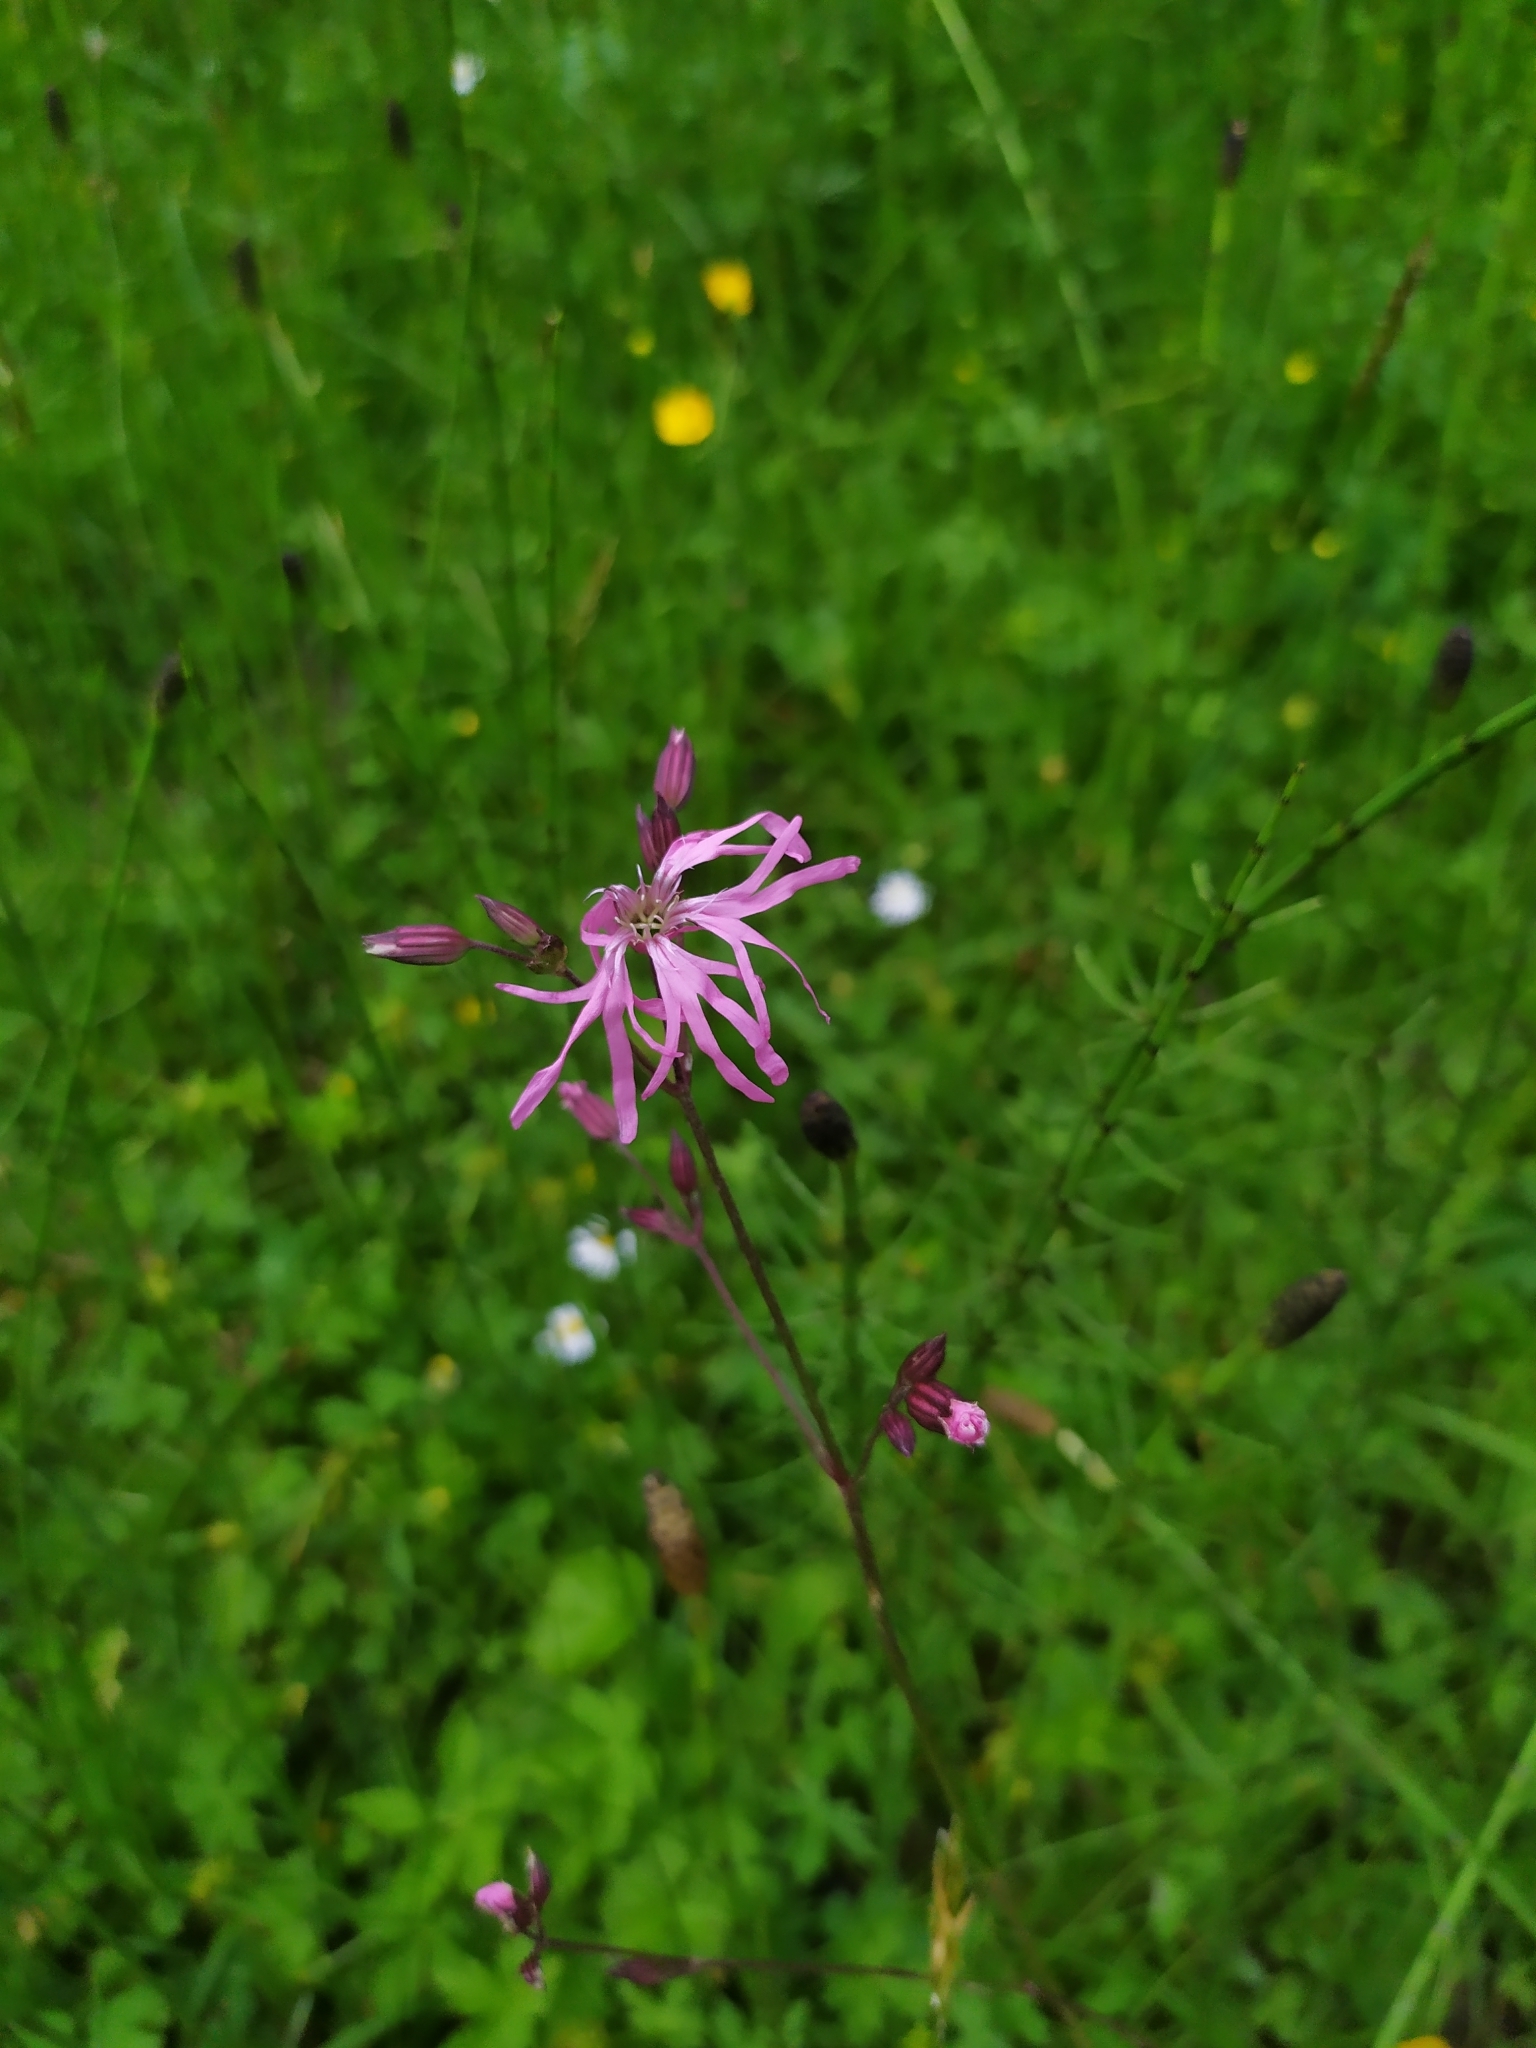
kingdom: Plantae
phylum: Tracheophyta
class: Magnoliopsida
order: Caryophyllales
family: Caryophyllaceae
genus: Silene
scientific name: Silene flos-cuculi
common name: Ragged-robin
